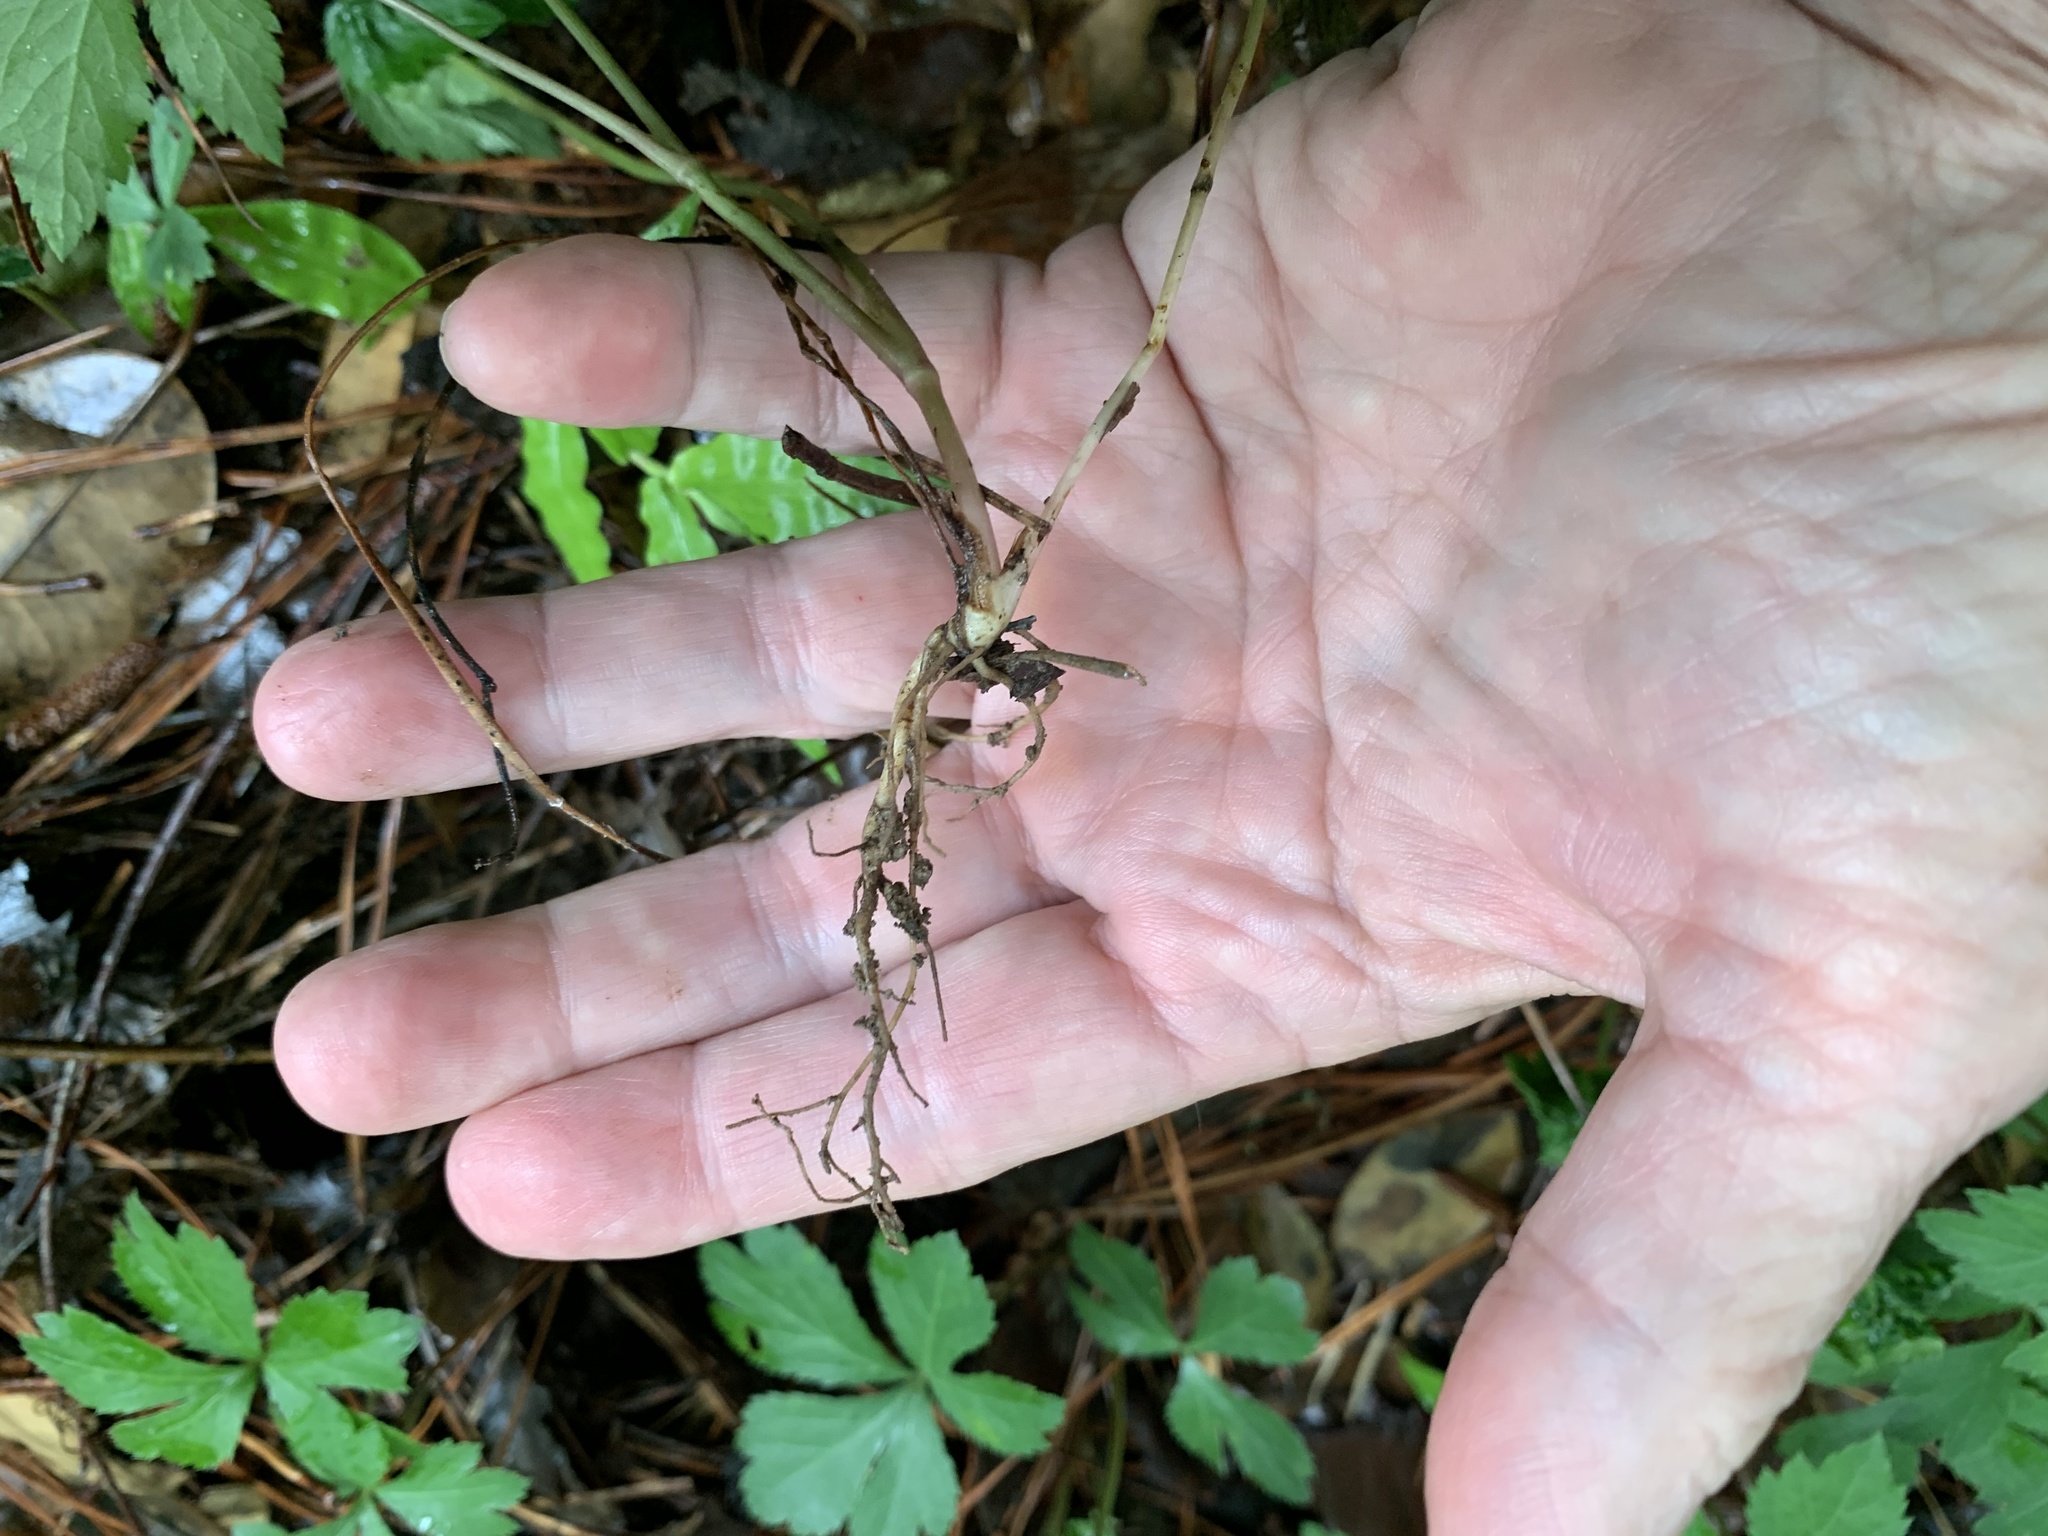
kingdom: Plantae
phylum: Tracheophyta
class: Magnoliopsida
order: Apiales
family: Apiaceae
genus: Sanicula
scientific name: Sanicula canadensis
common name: Canada sanicle
